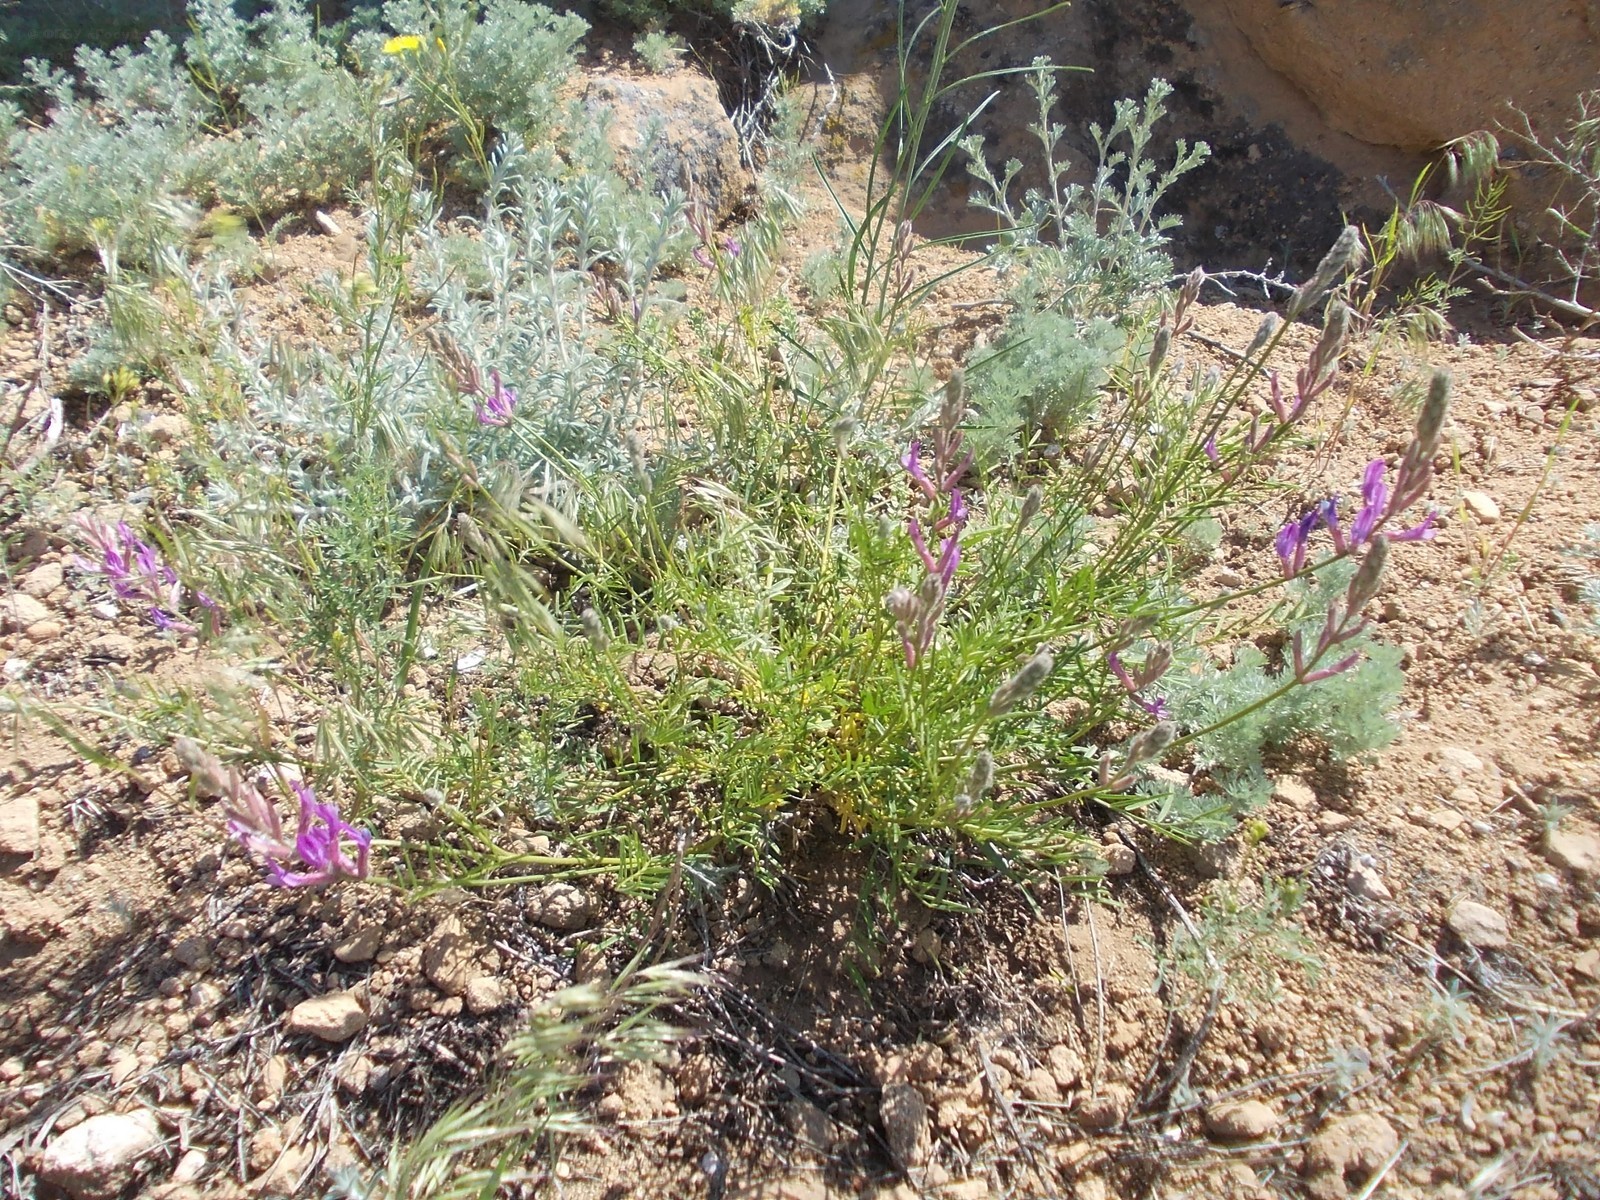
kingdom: Plantae
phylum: Tracheophyta
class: Magnoliopsida
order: Fabales
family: Fabaceae
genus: Astragalus
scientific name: Astragalus varius
